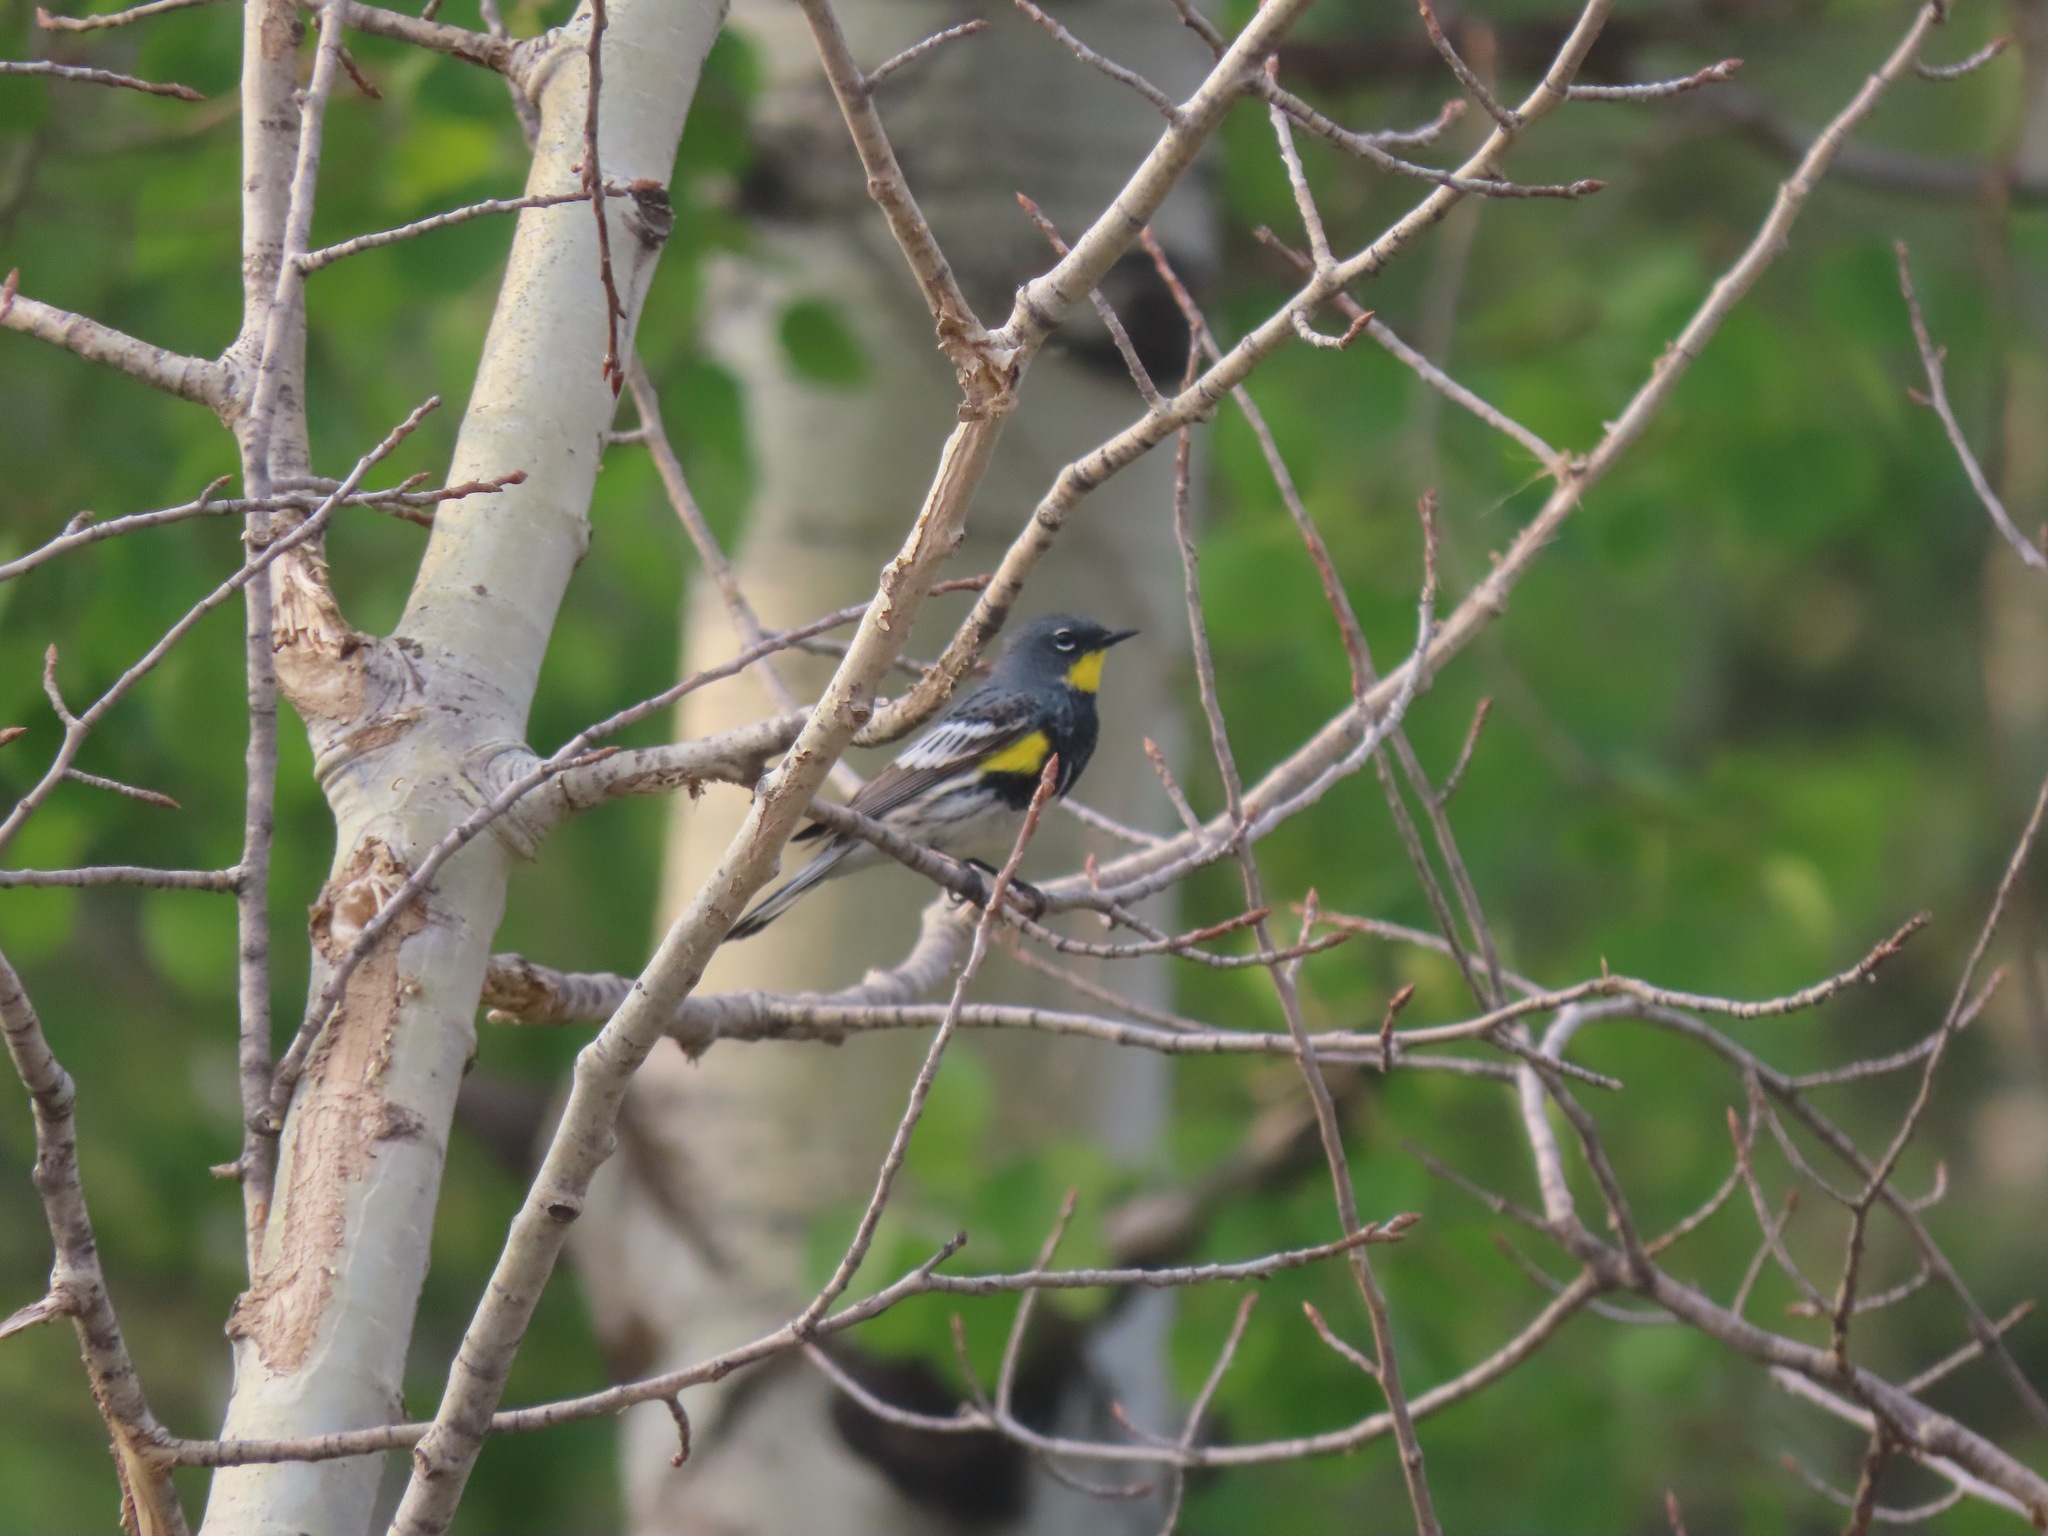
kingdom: Animalia
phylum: Chordata
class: Aves
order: Passeriformes
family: Parulidae
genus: Setophaga
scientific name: Setophaga coronata
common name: Myrtle warbler
